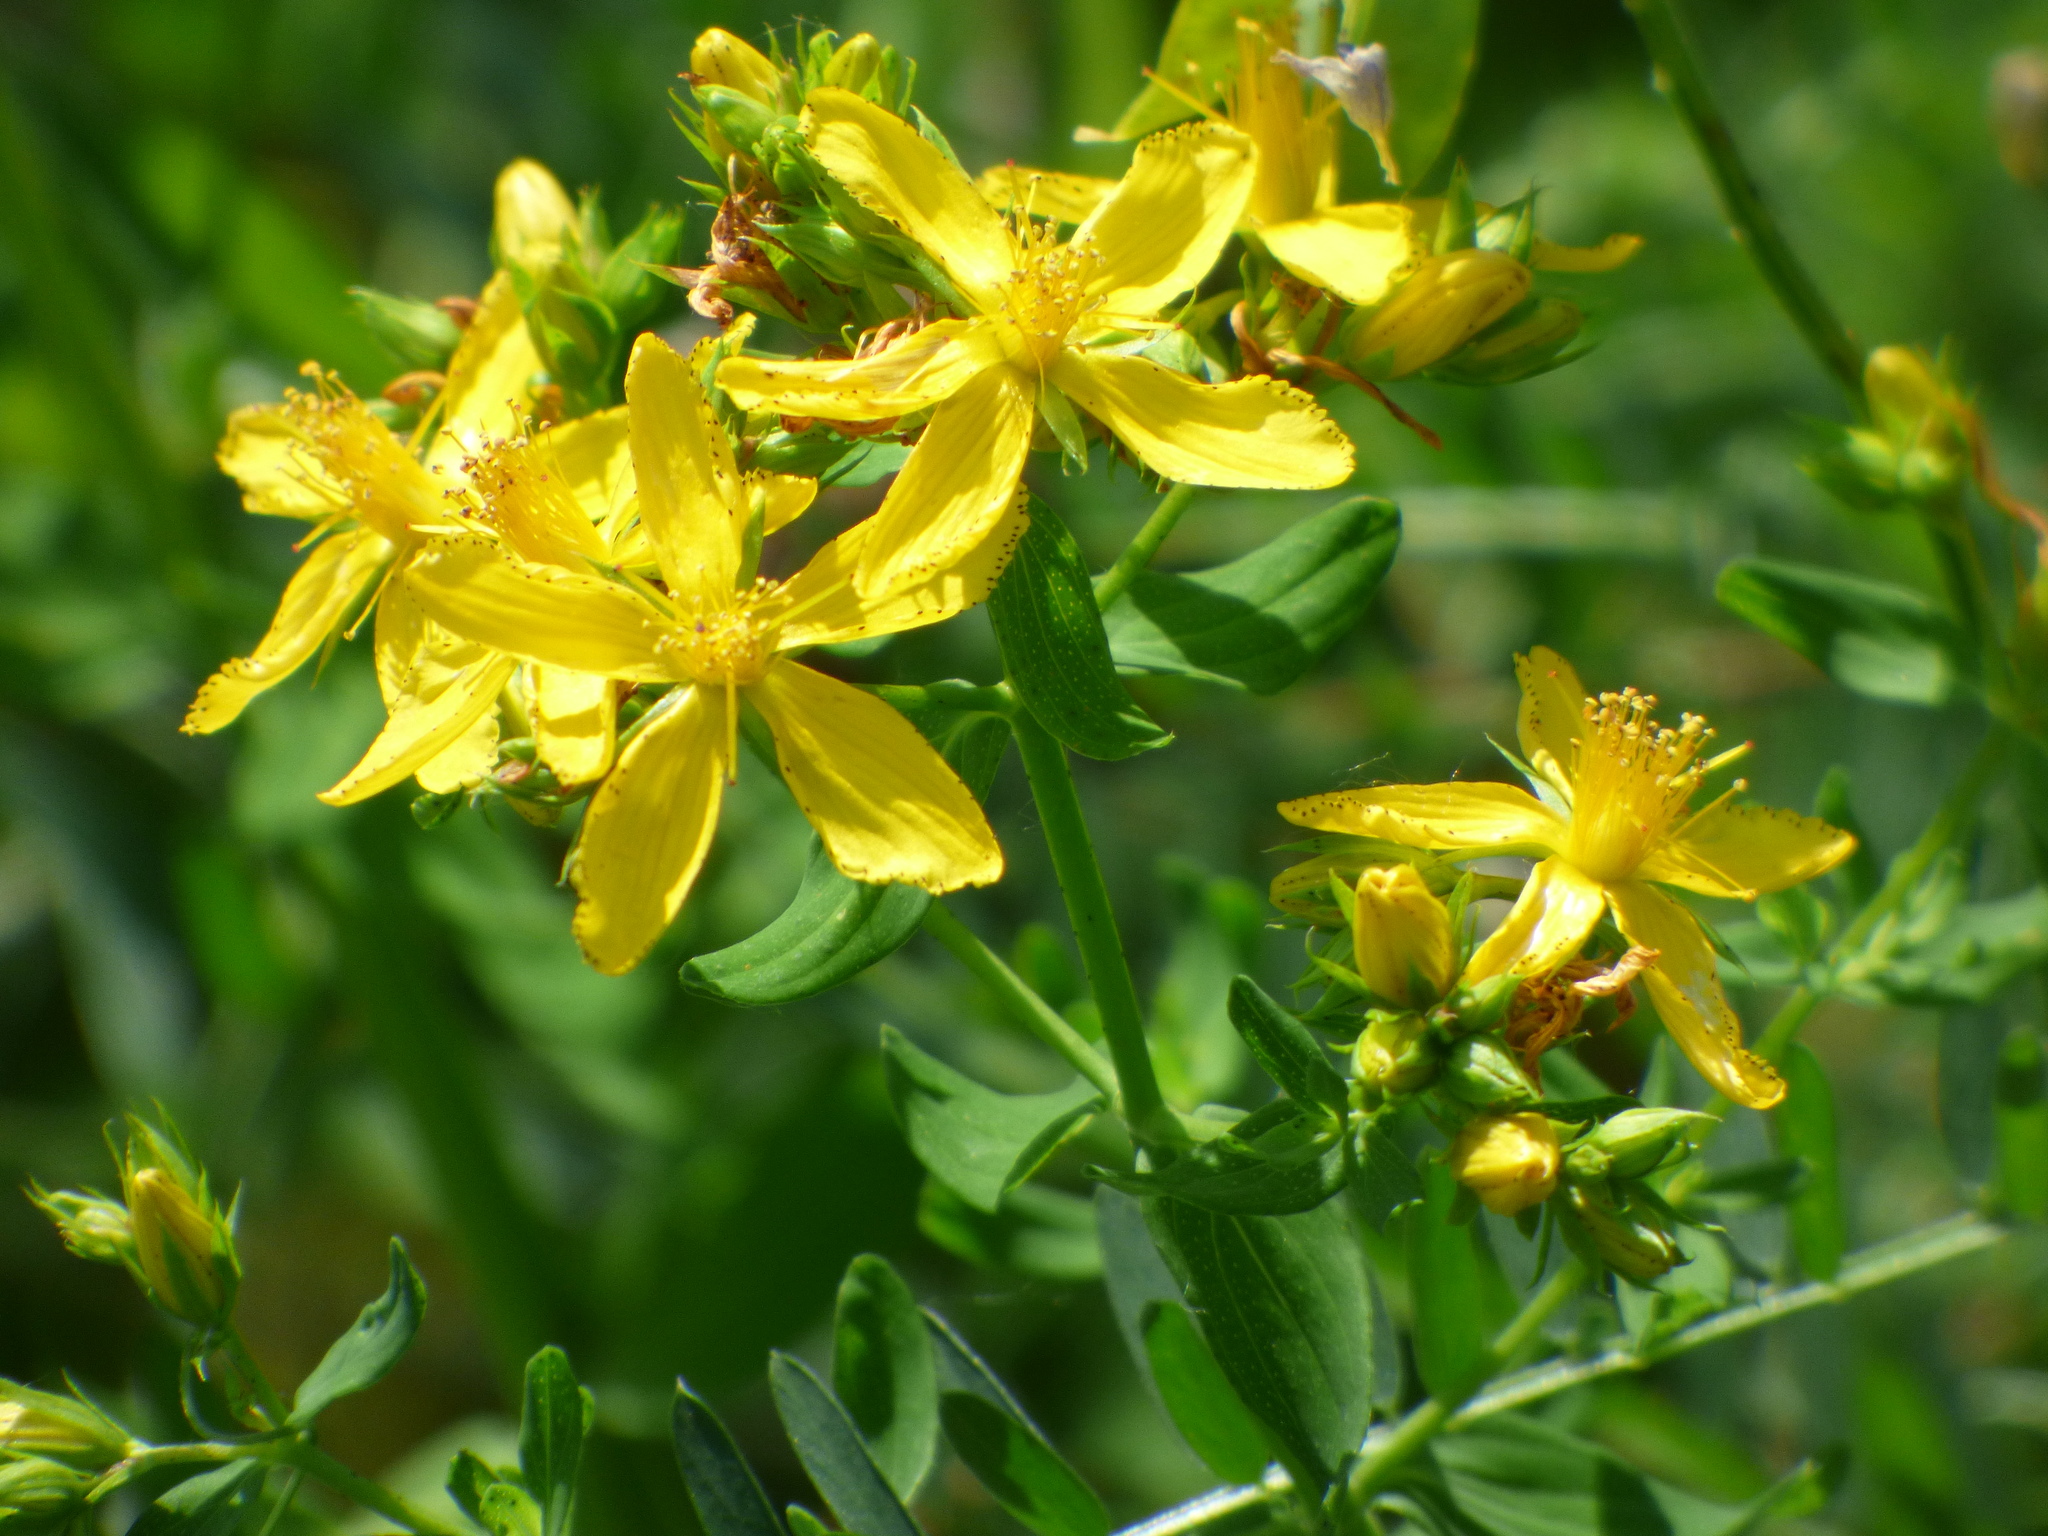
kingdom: Plantae
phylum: Tracheophyta
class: Magnoliopsida
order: Malpighiales
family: Hypericaceae
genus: Hypericum
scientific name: Hypericum perforatum
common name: Common st. johnswort
